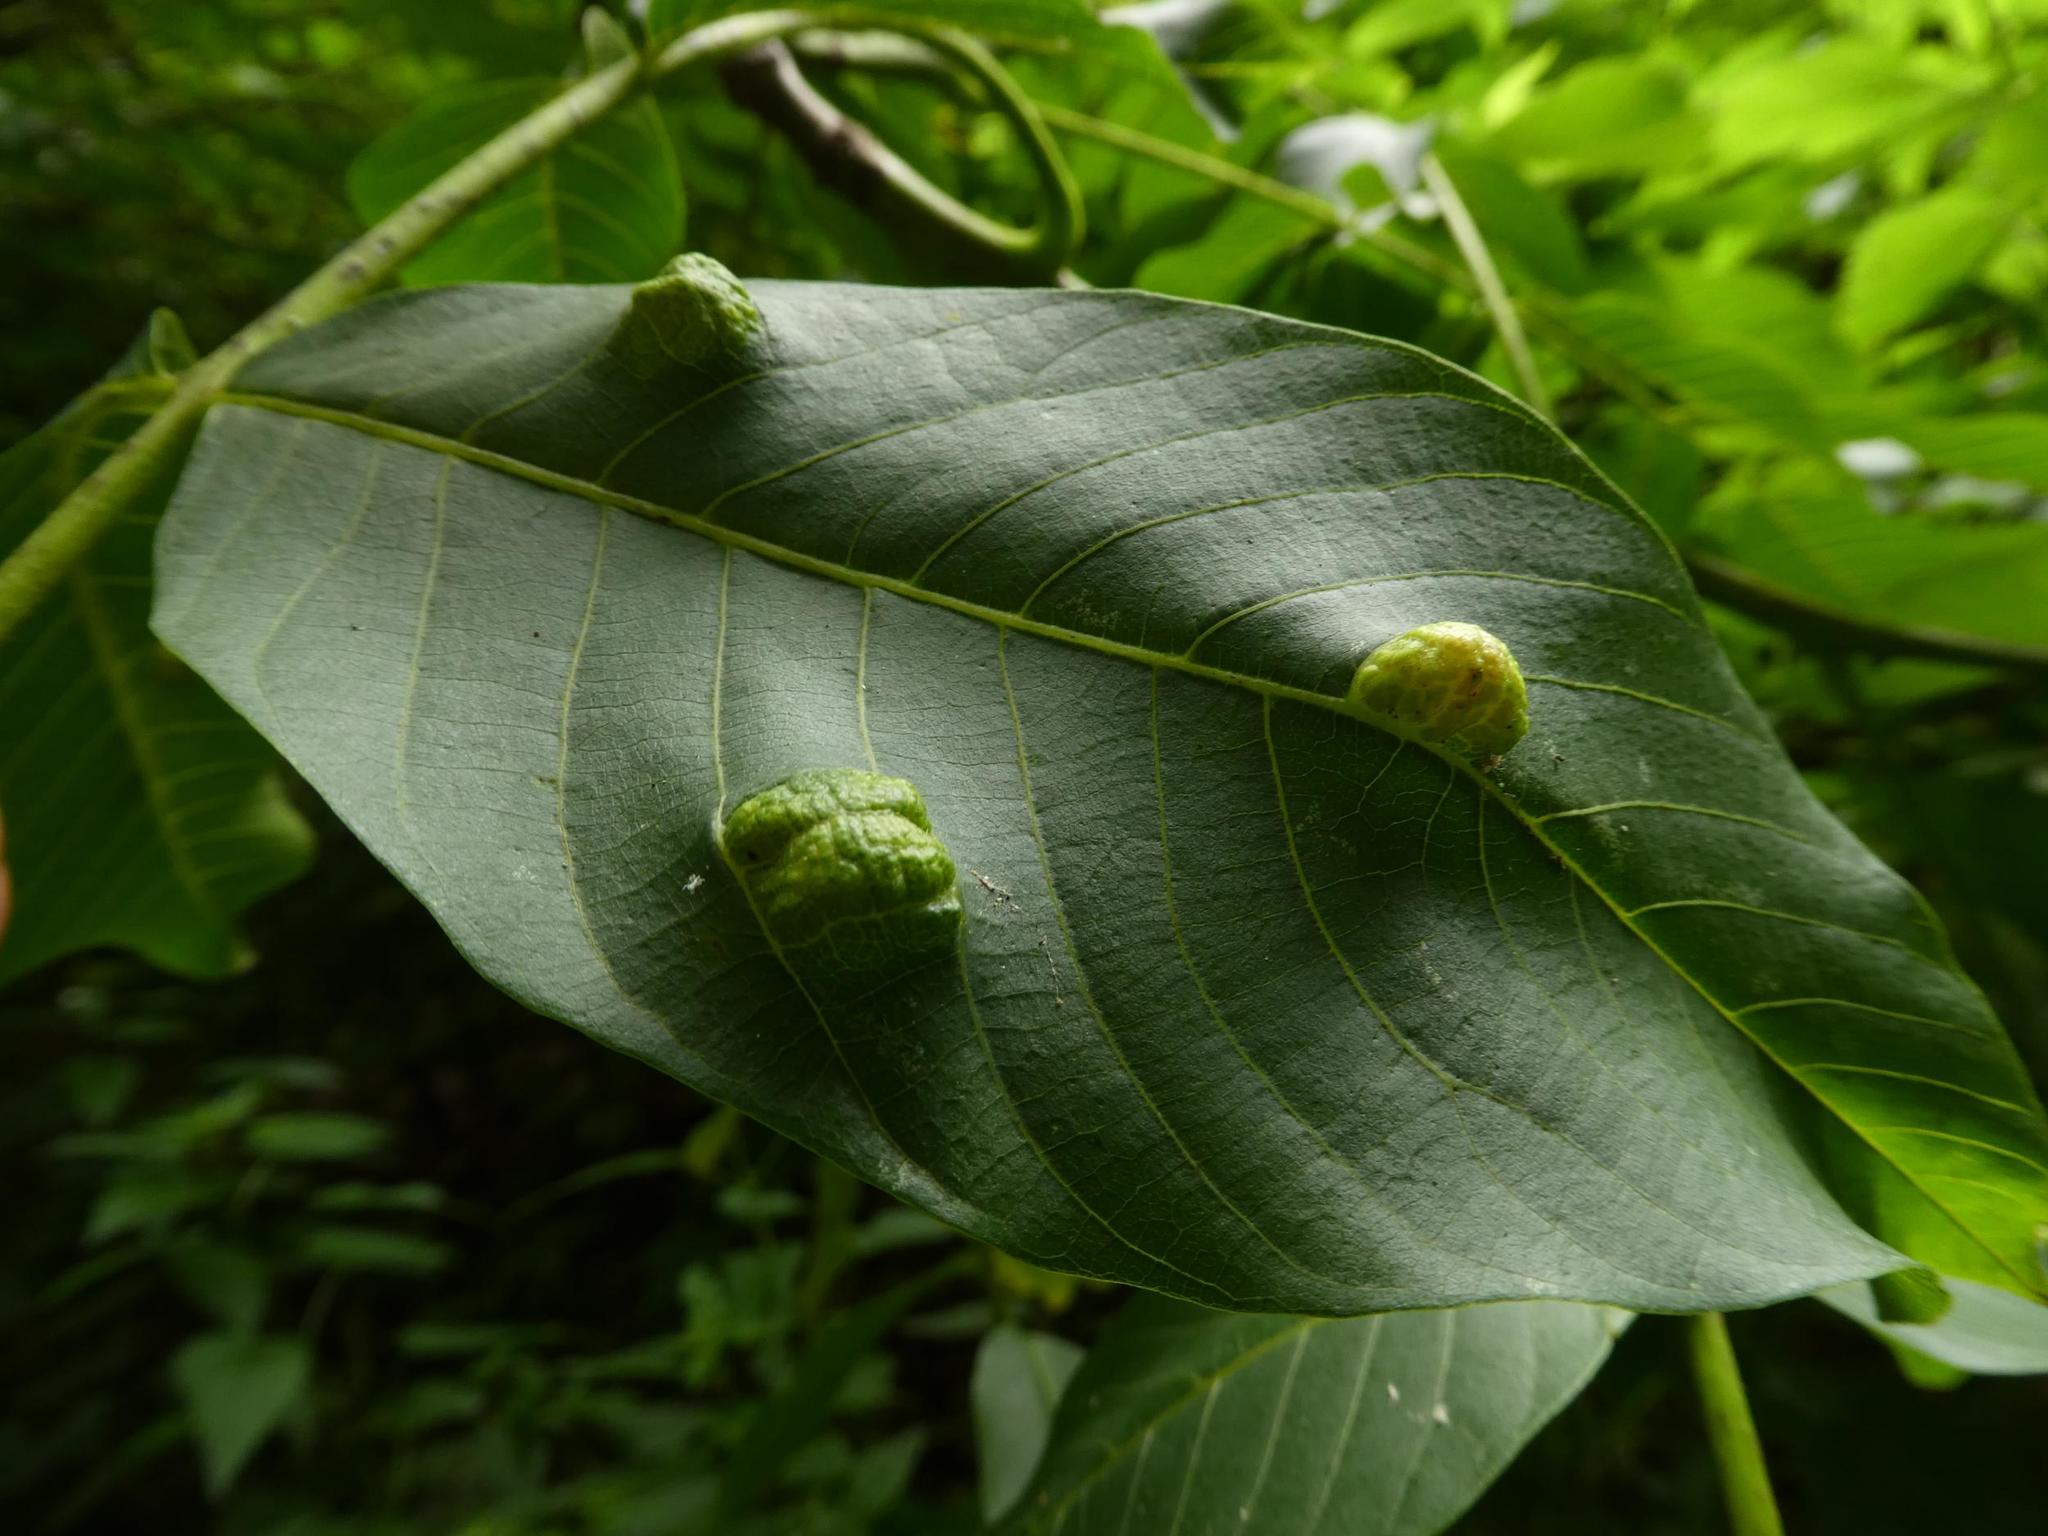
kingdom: Plantae
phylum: Tracheophyta
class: Magnoliopsida
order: Fagales
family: Juglandaceae
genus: Juglans
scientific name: Juglans regia
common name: Walnut
